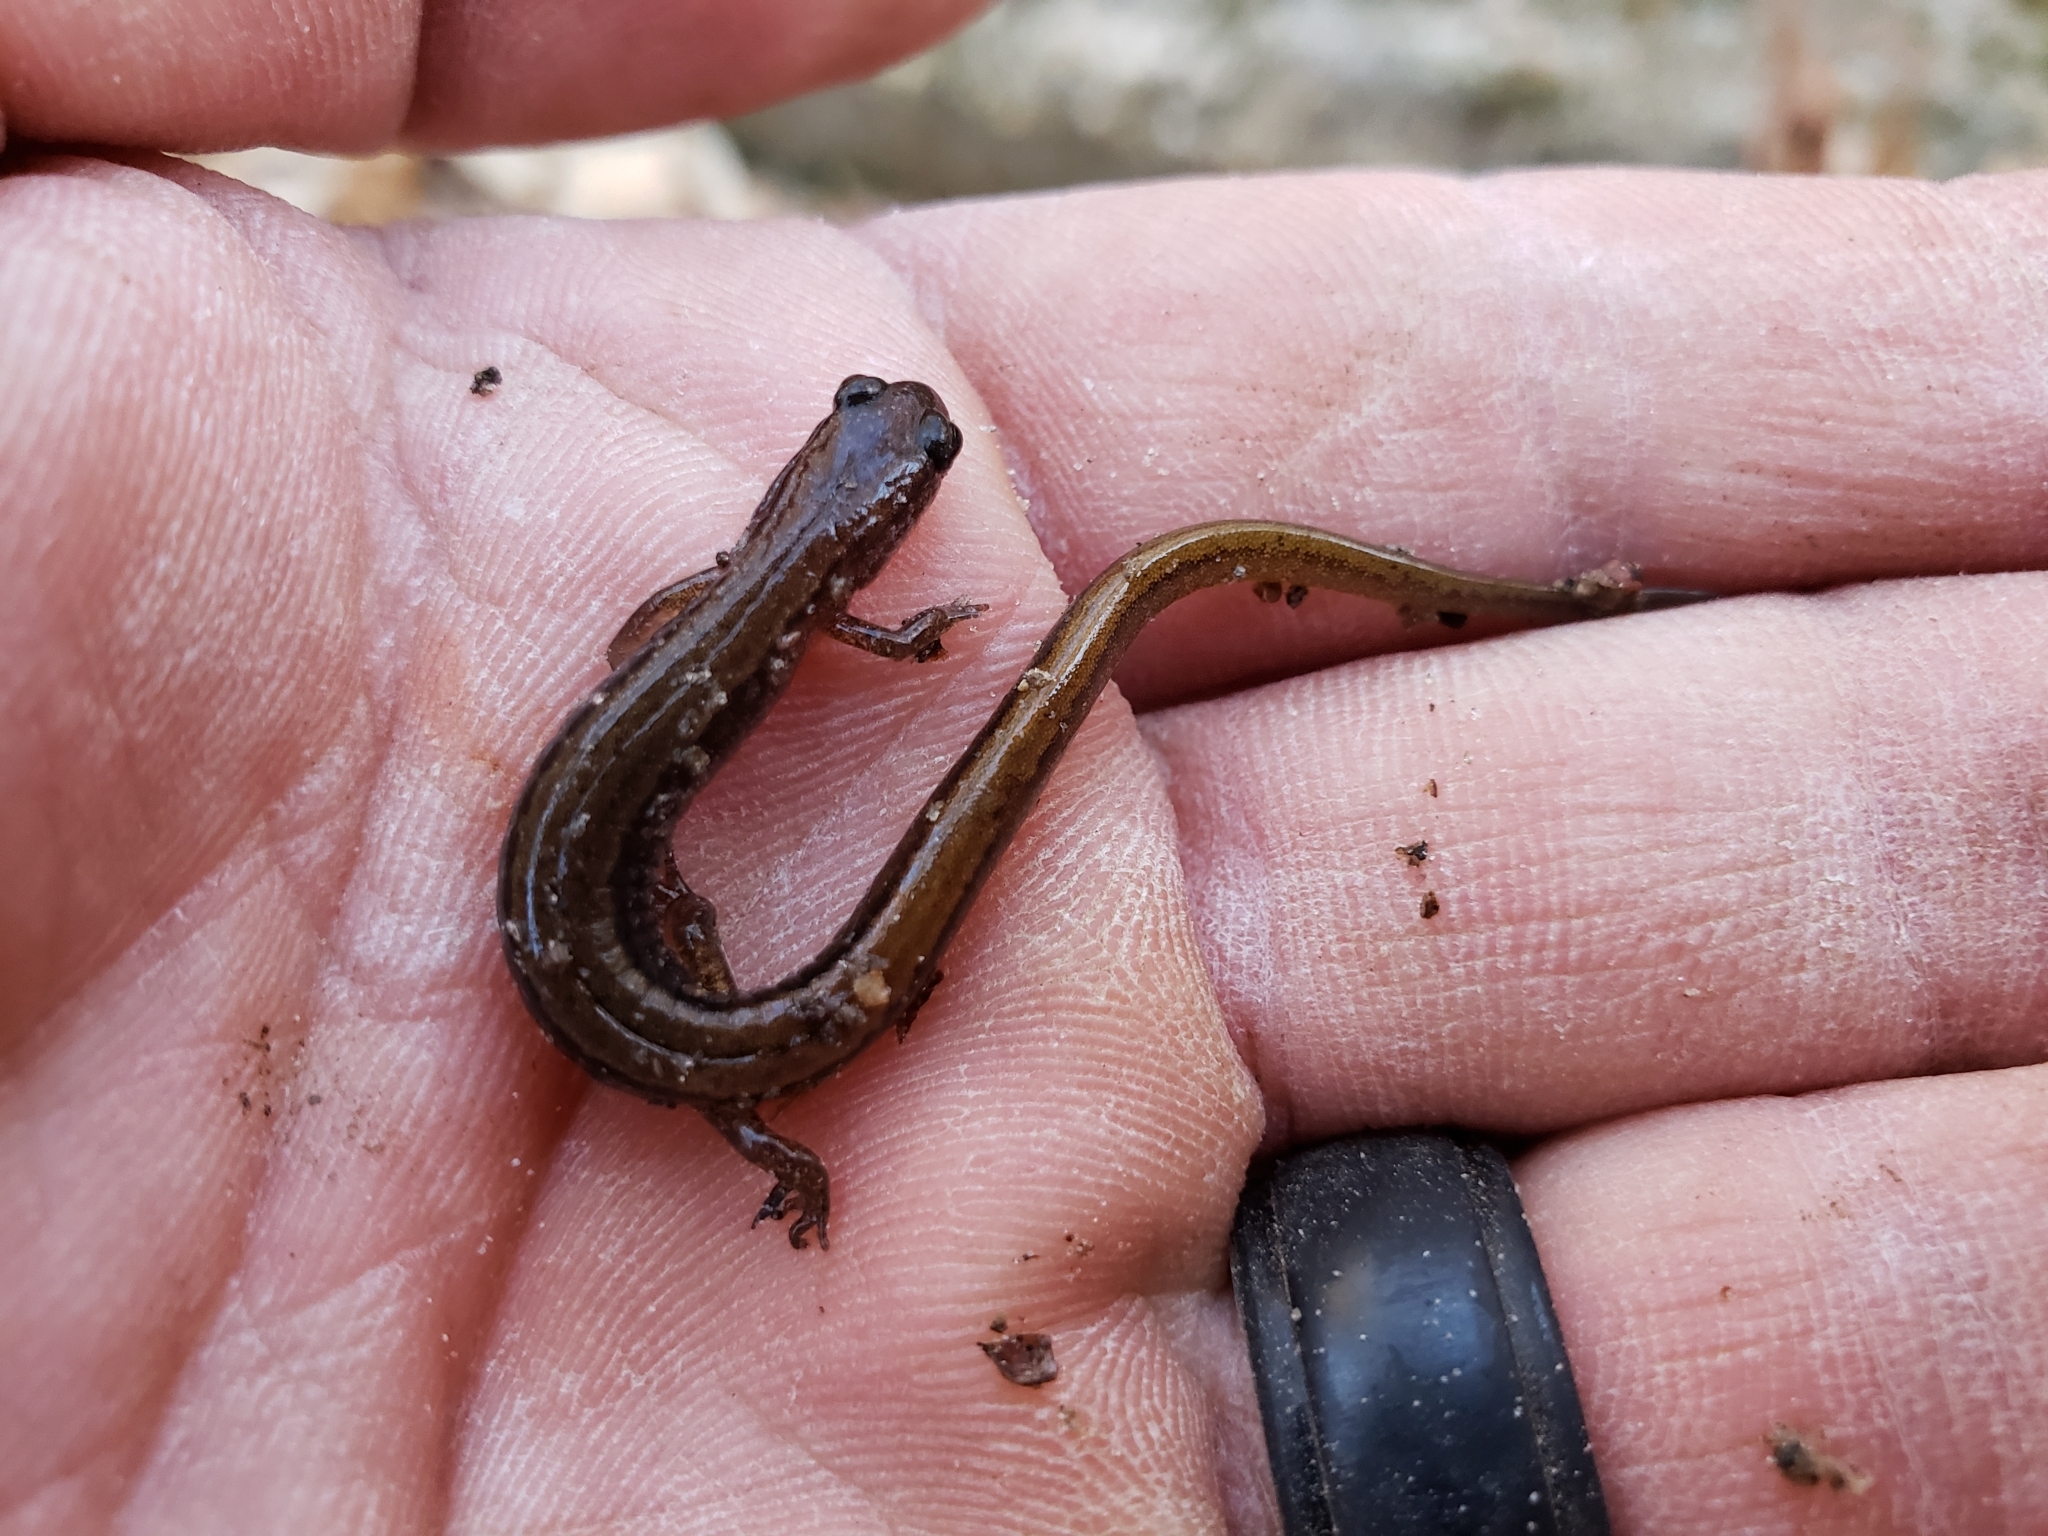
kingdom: Animalia
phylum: Chordata
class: Amphibia
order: Caudata
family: Plethodontidae
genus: Eurycea
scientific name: Eurycea paludicola
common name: Western dwarf salamander
